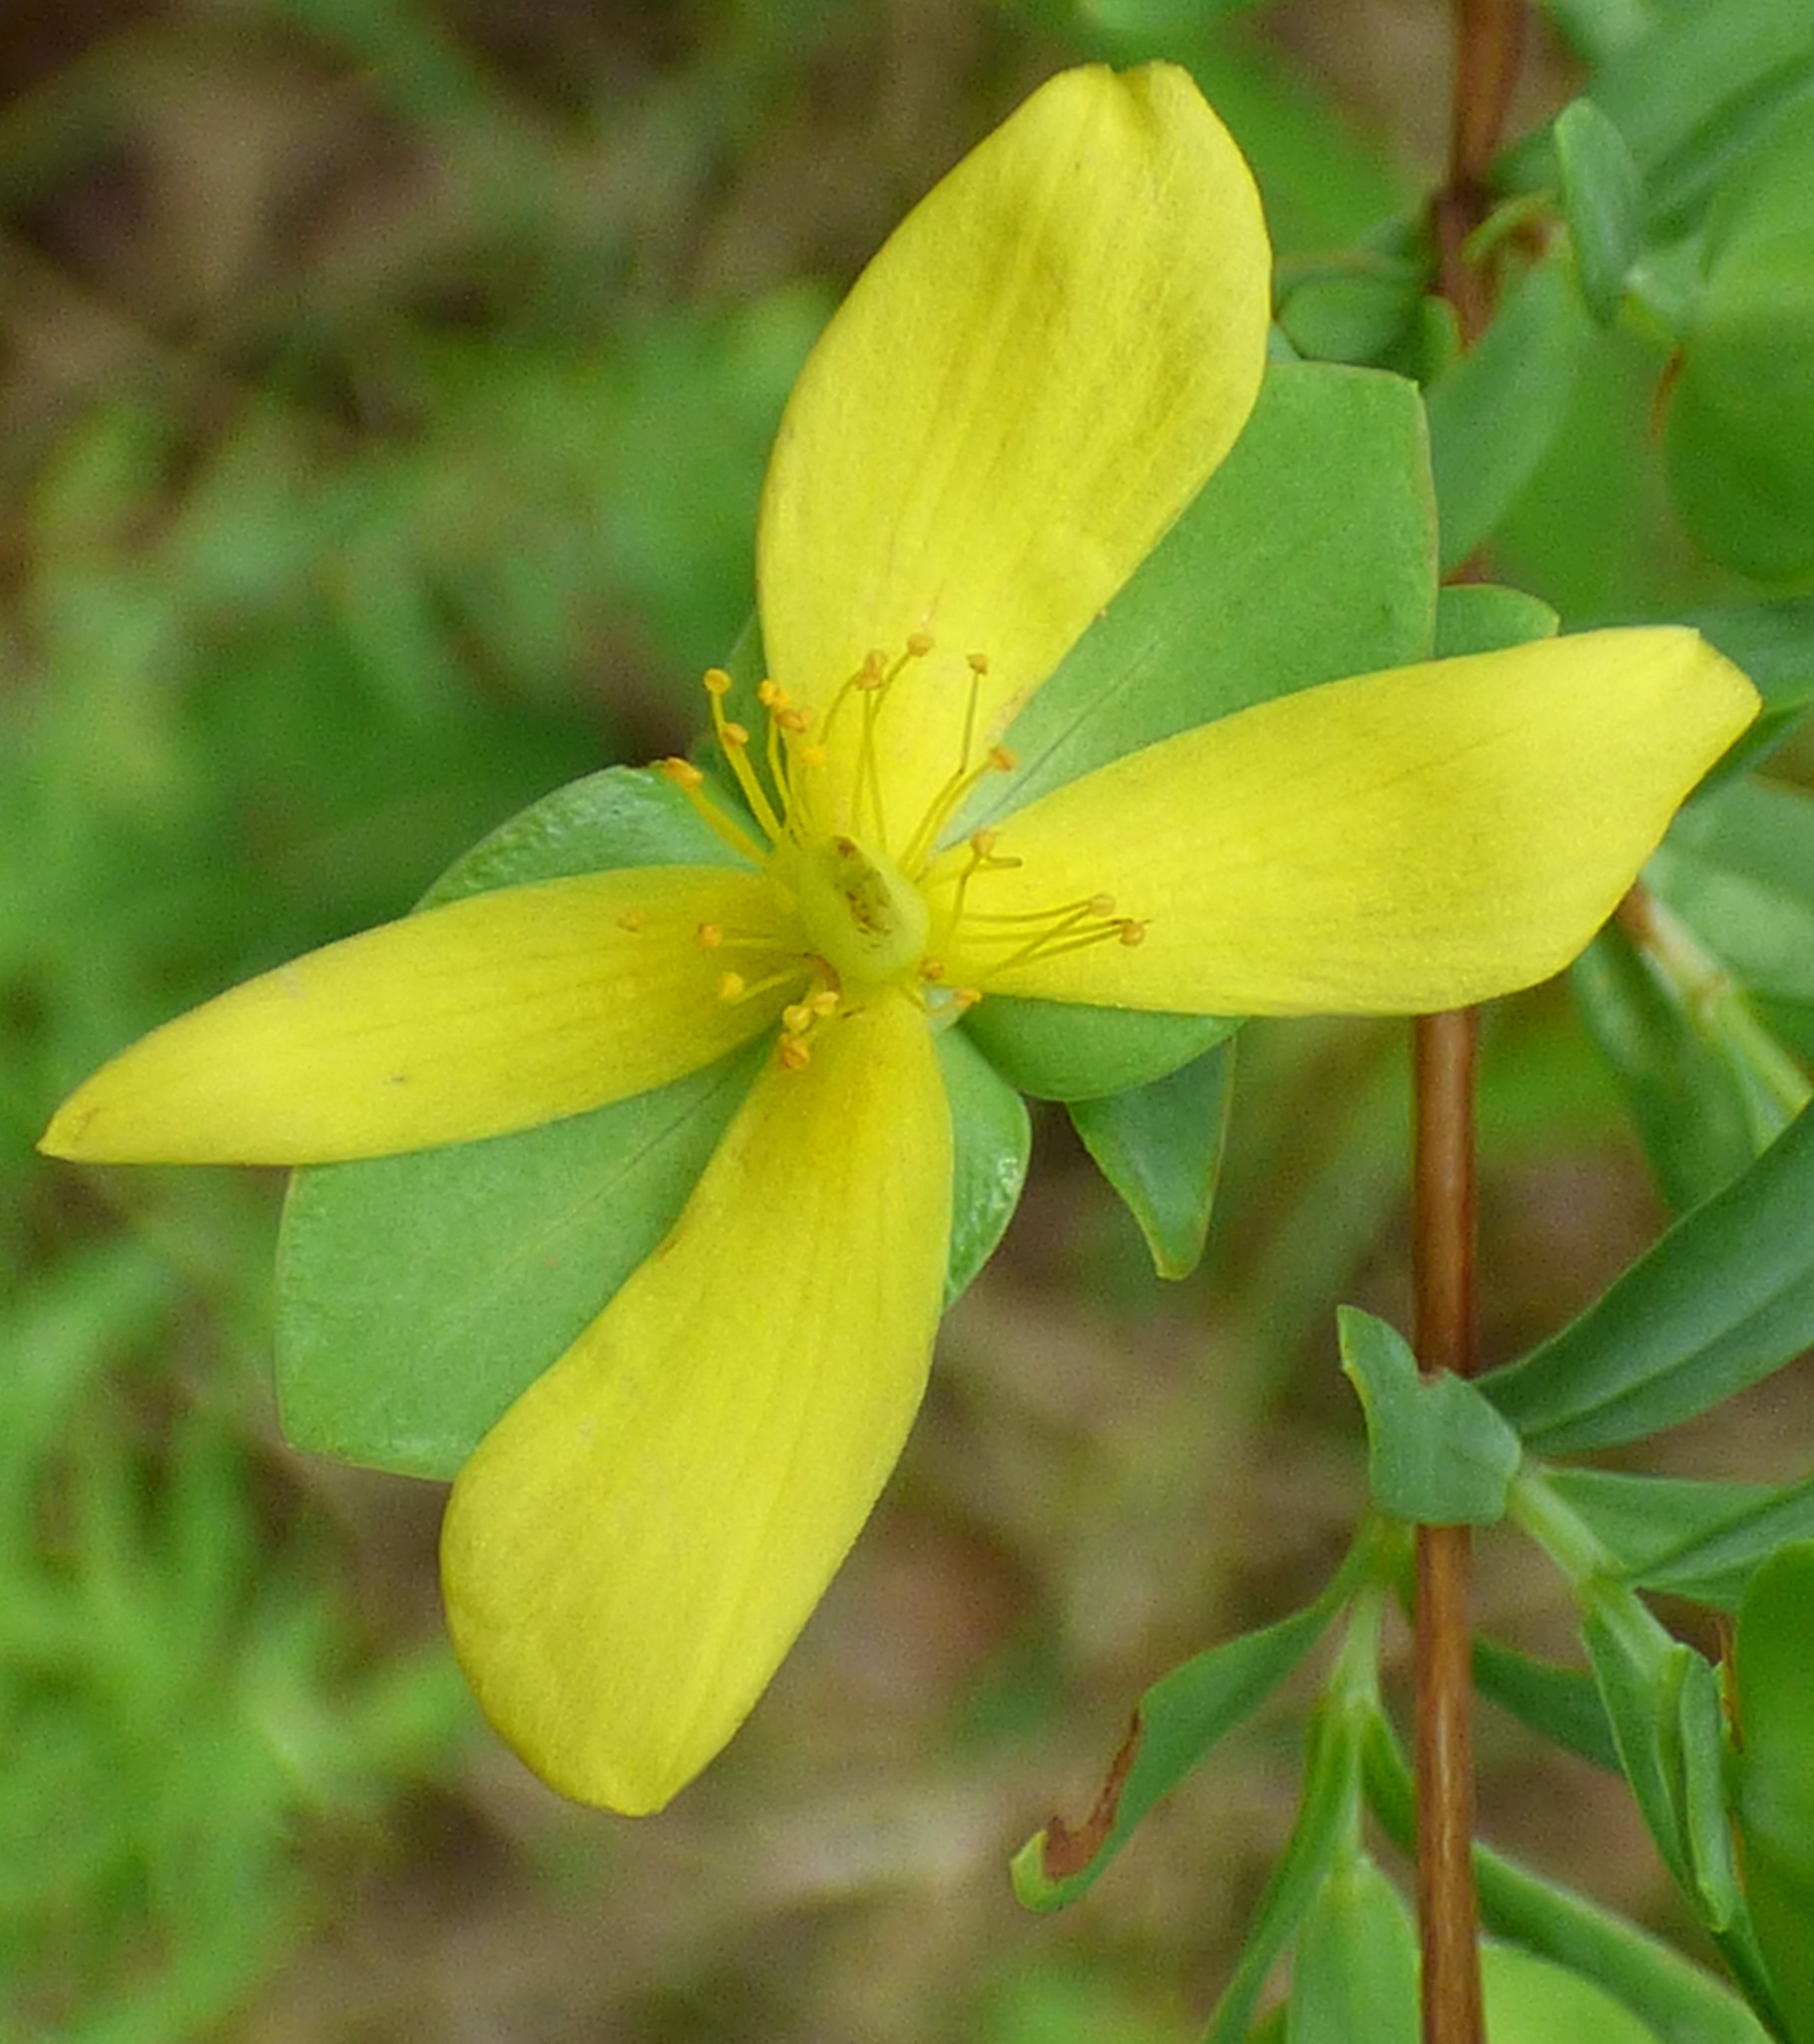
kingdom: Plantae
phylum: Tracheophyta
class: Magnoliopsida
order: Malpighiales
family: Hypericaceae
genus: Hypericum
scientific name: Hypericum hypericoides
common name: St. andrew's cross
